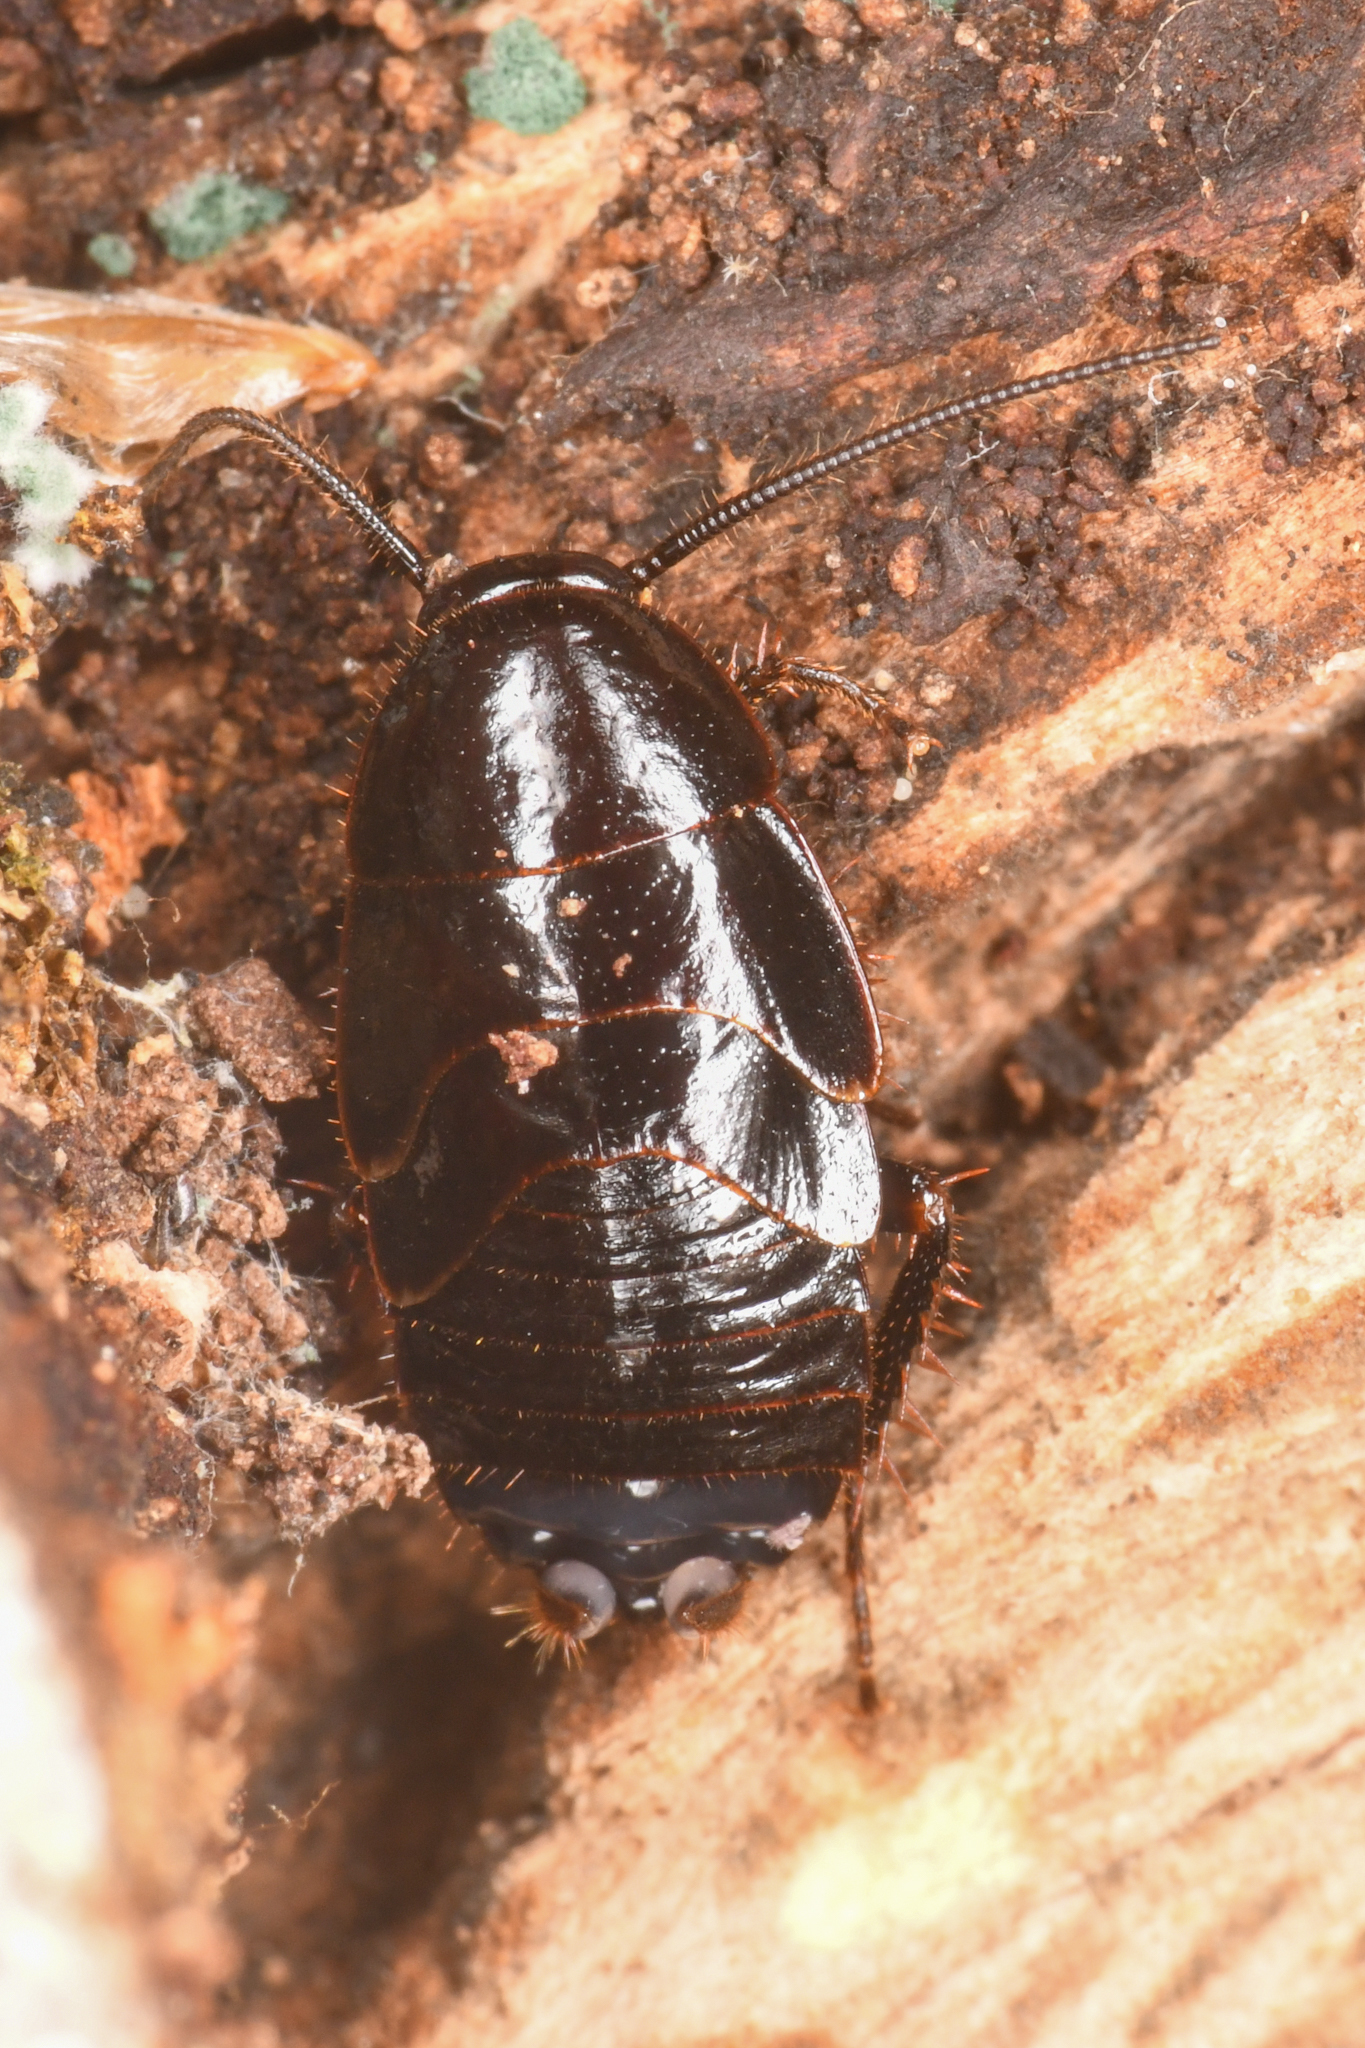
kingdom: Animalia
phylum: Arthropoda
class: Insecta
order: Blattodea
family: Ectobiidae
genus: Parcoblatta
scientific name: Parcoblatta americana
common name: Western wood cockroach
